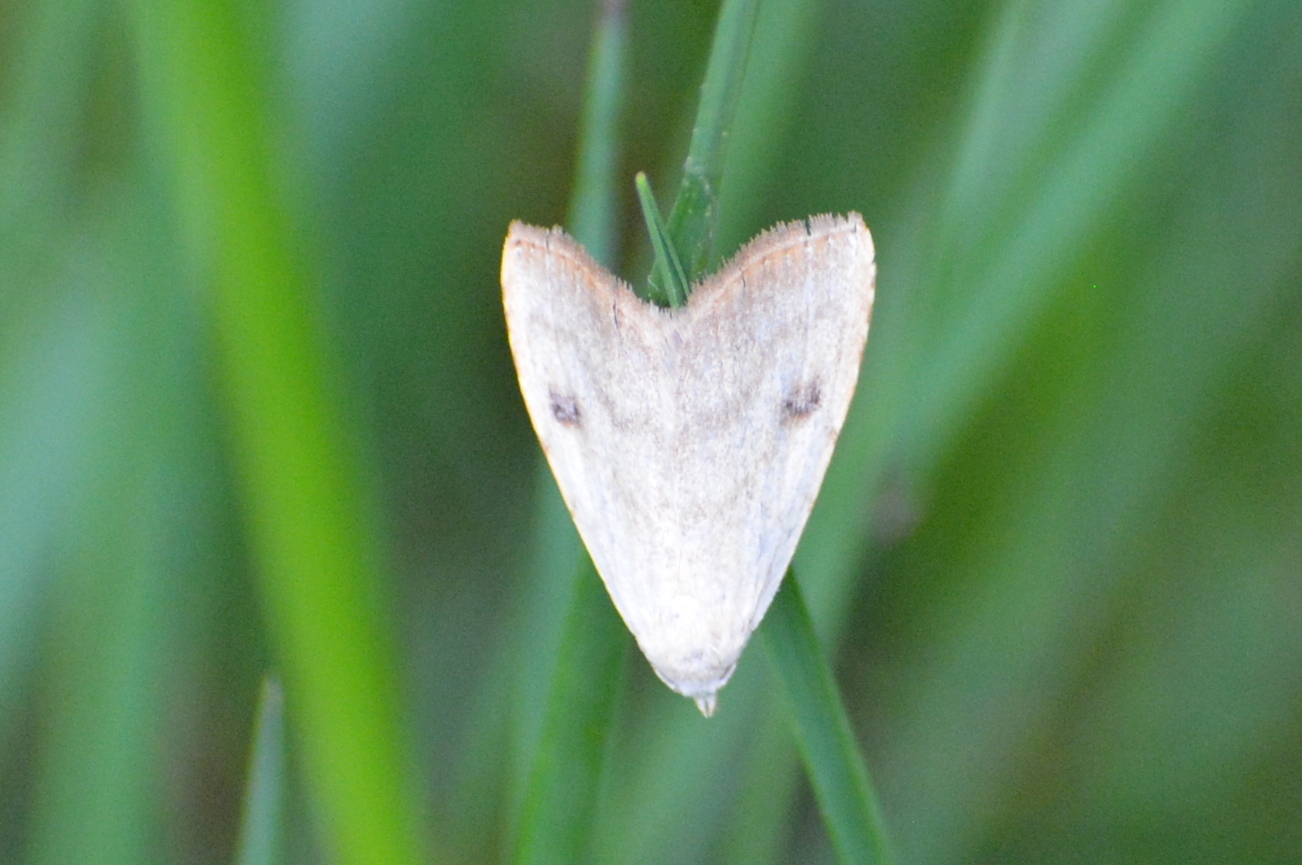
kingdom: Animalia
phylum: Arthropoda
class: Insecta
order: Lepidoptera
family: Erebidae
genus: Rivula
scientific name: Rivula sericealis
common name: Straw dot
